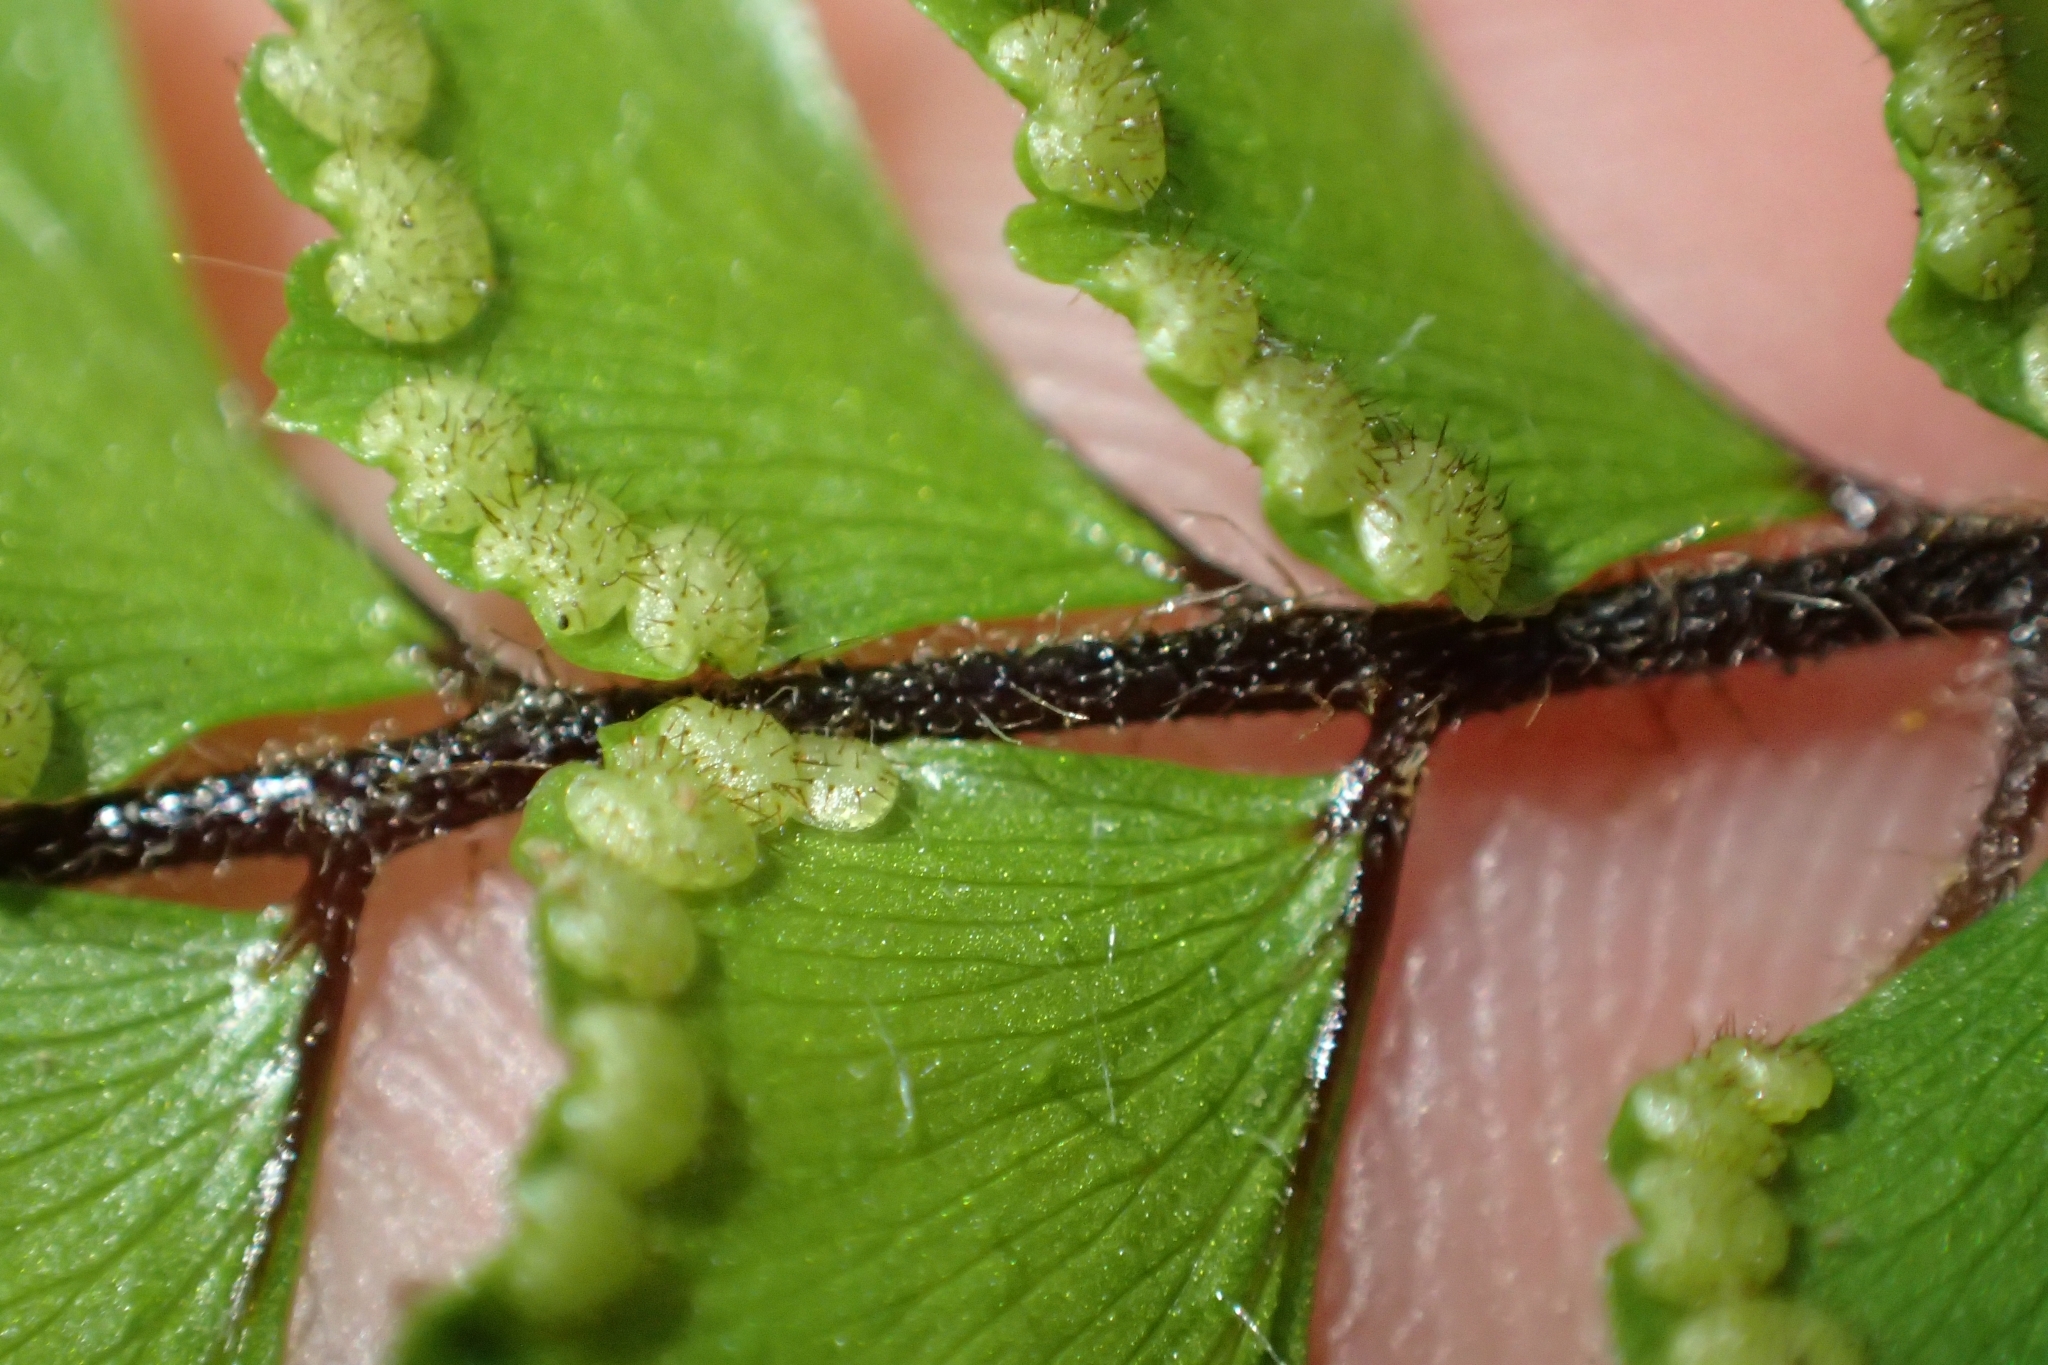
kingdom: Plantae
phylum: Tracheophyta
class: Polypodiopsida
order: Polypodiales
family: Pteridaceae
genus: Adiantum
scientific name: Adiantum hispidulum
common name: Rough maidenhair
